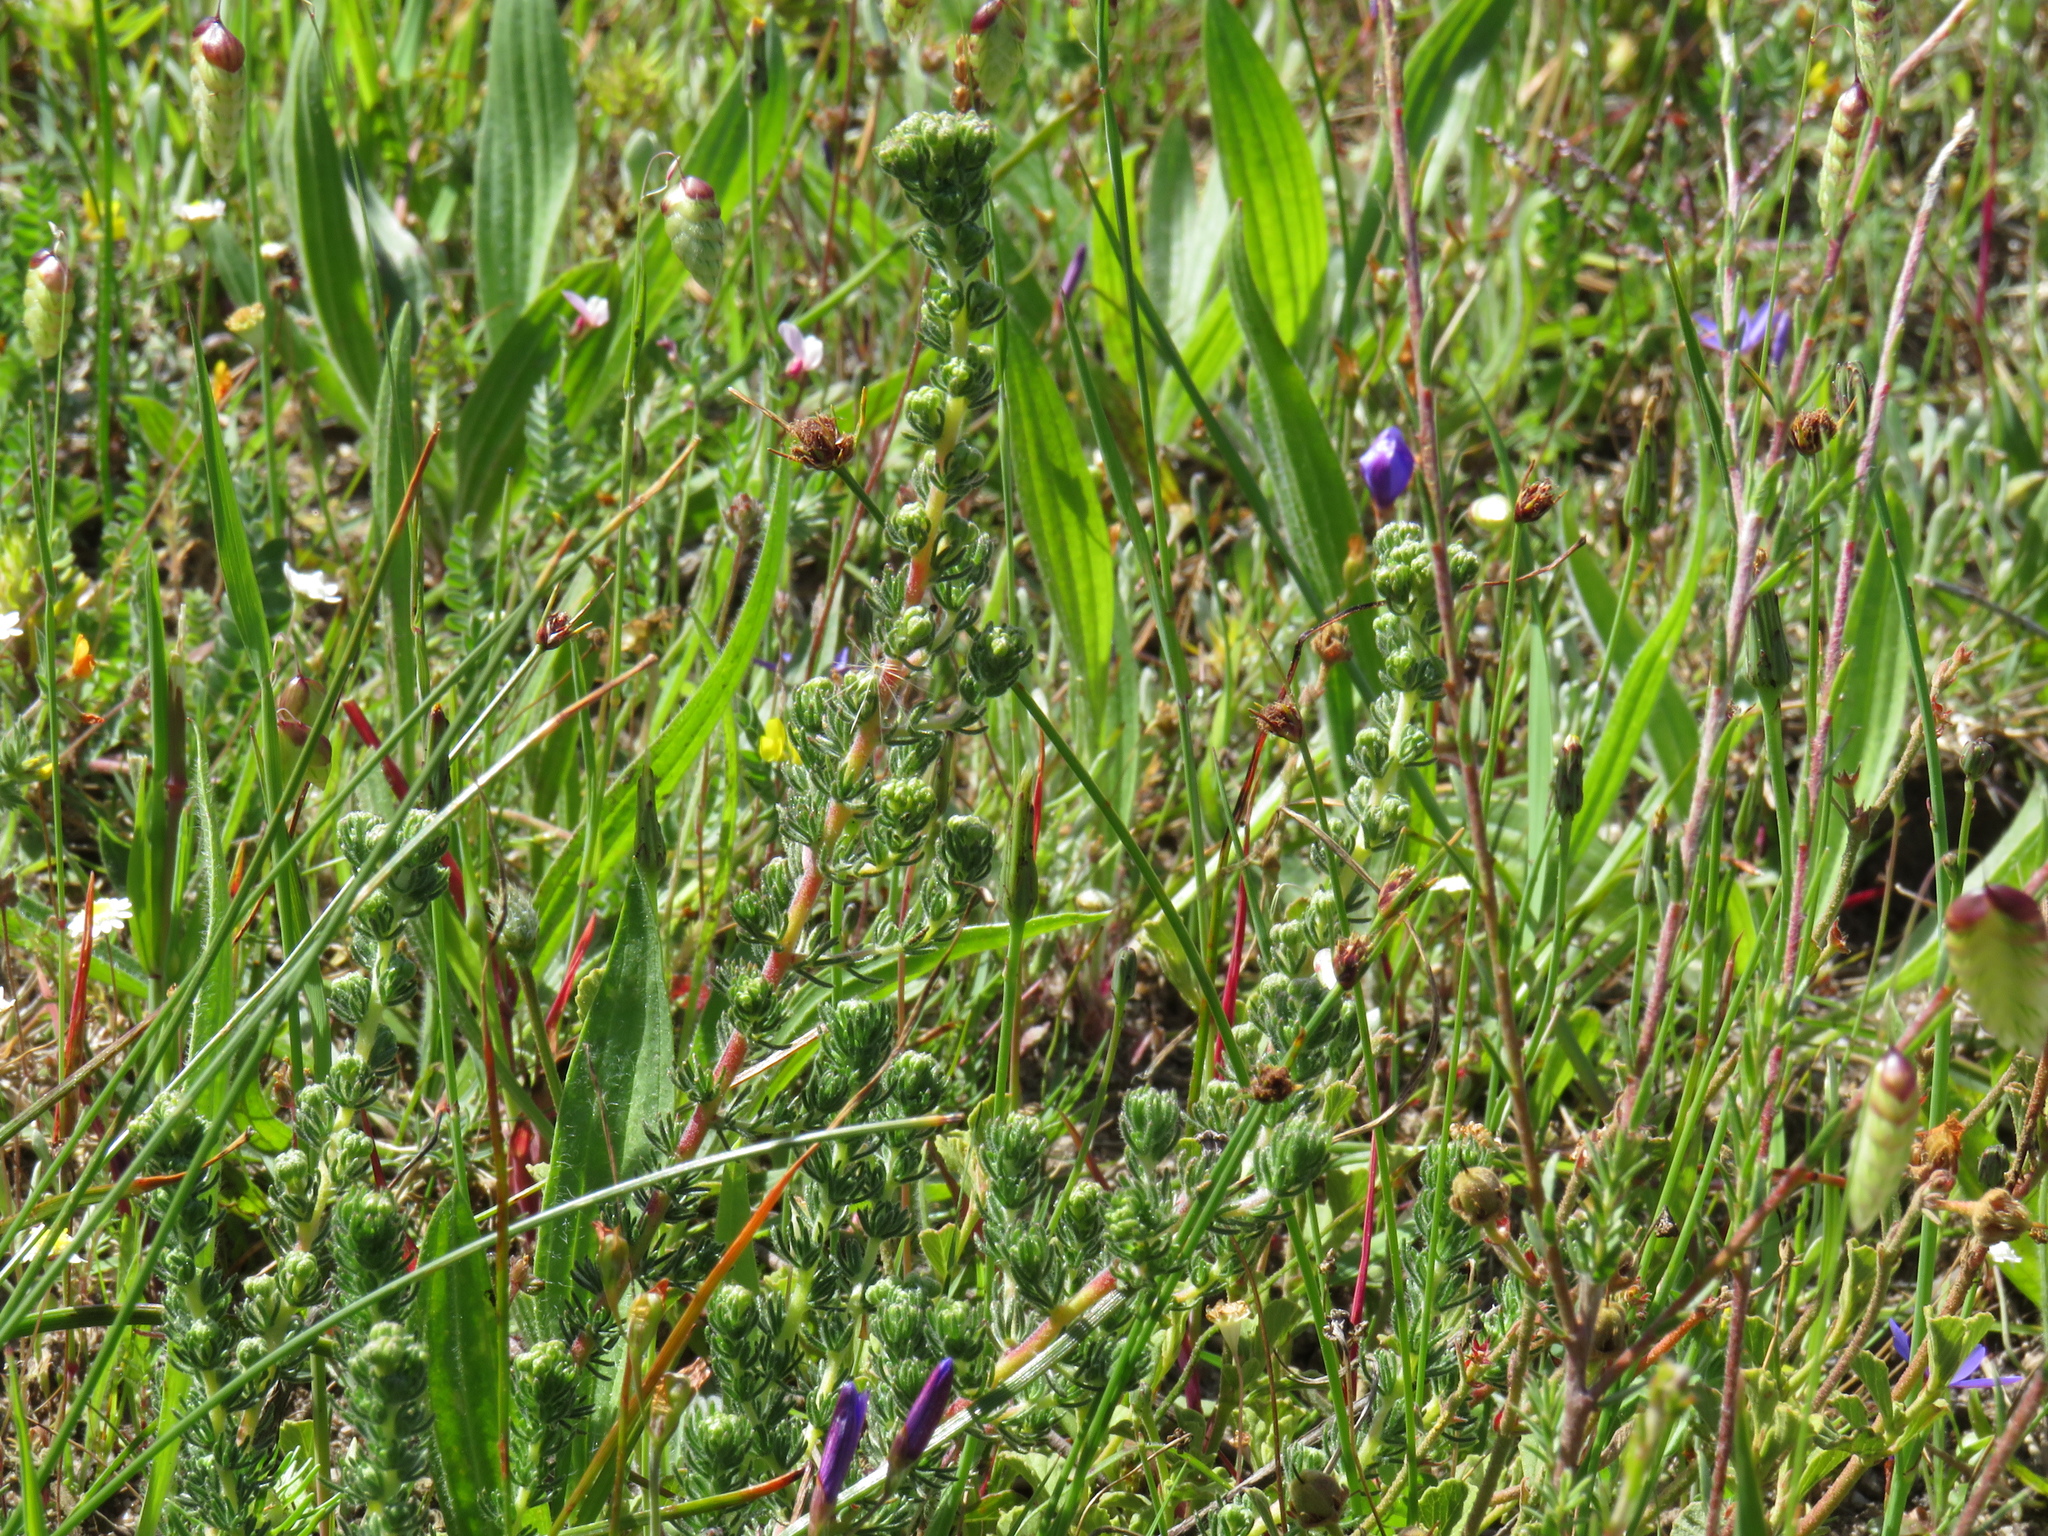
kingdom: Plantae
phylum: Tracheophyta
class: Magnoliopsida
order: Fabales
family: Fabaceae
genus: Aspalathus
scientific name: Aspalathus cymbiformis
